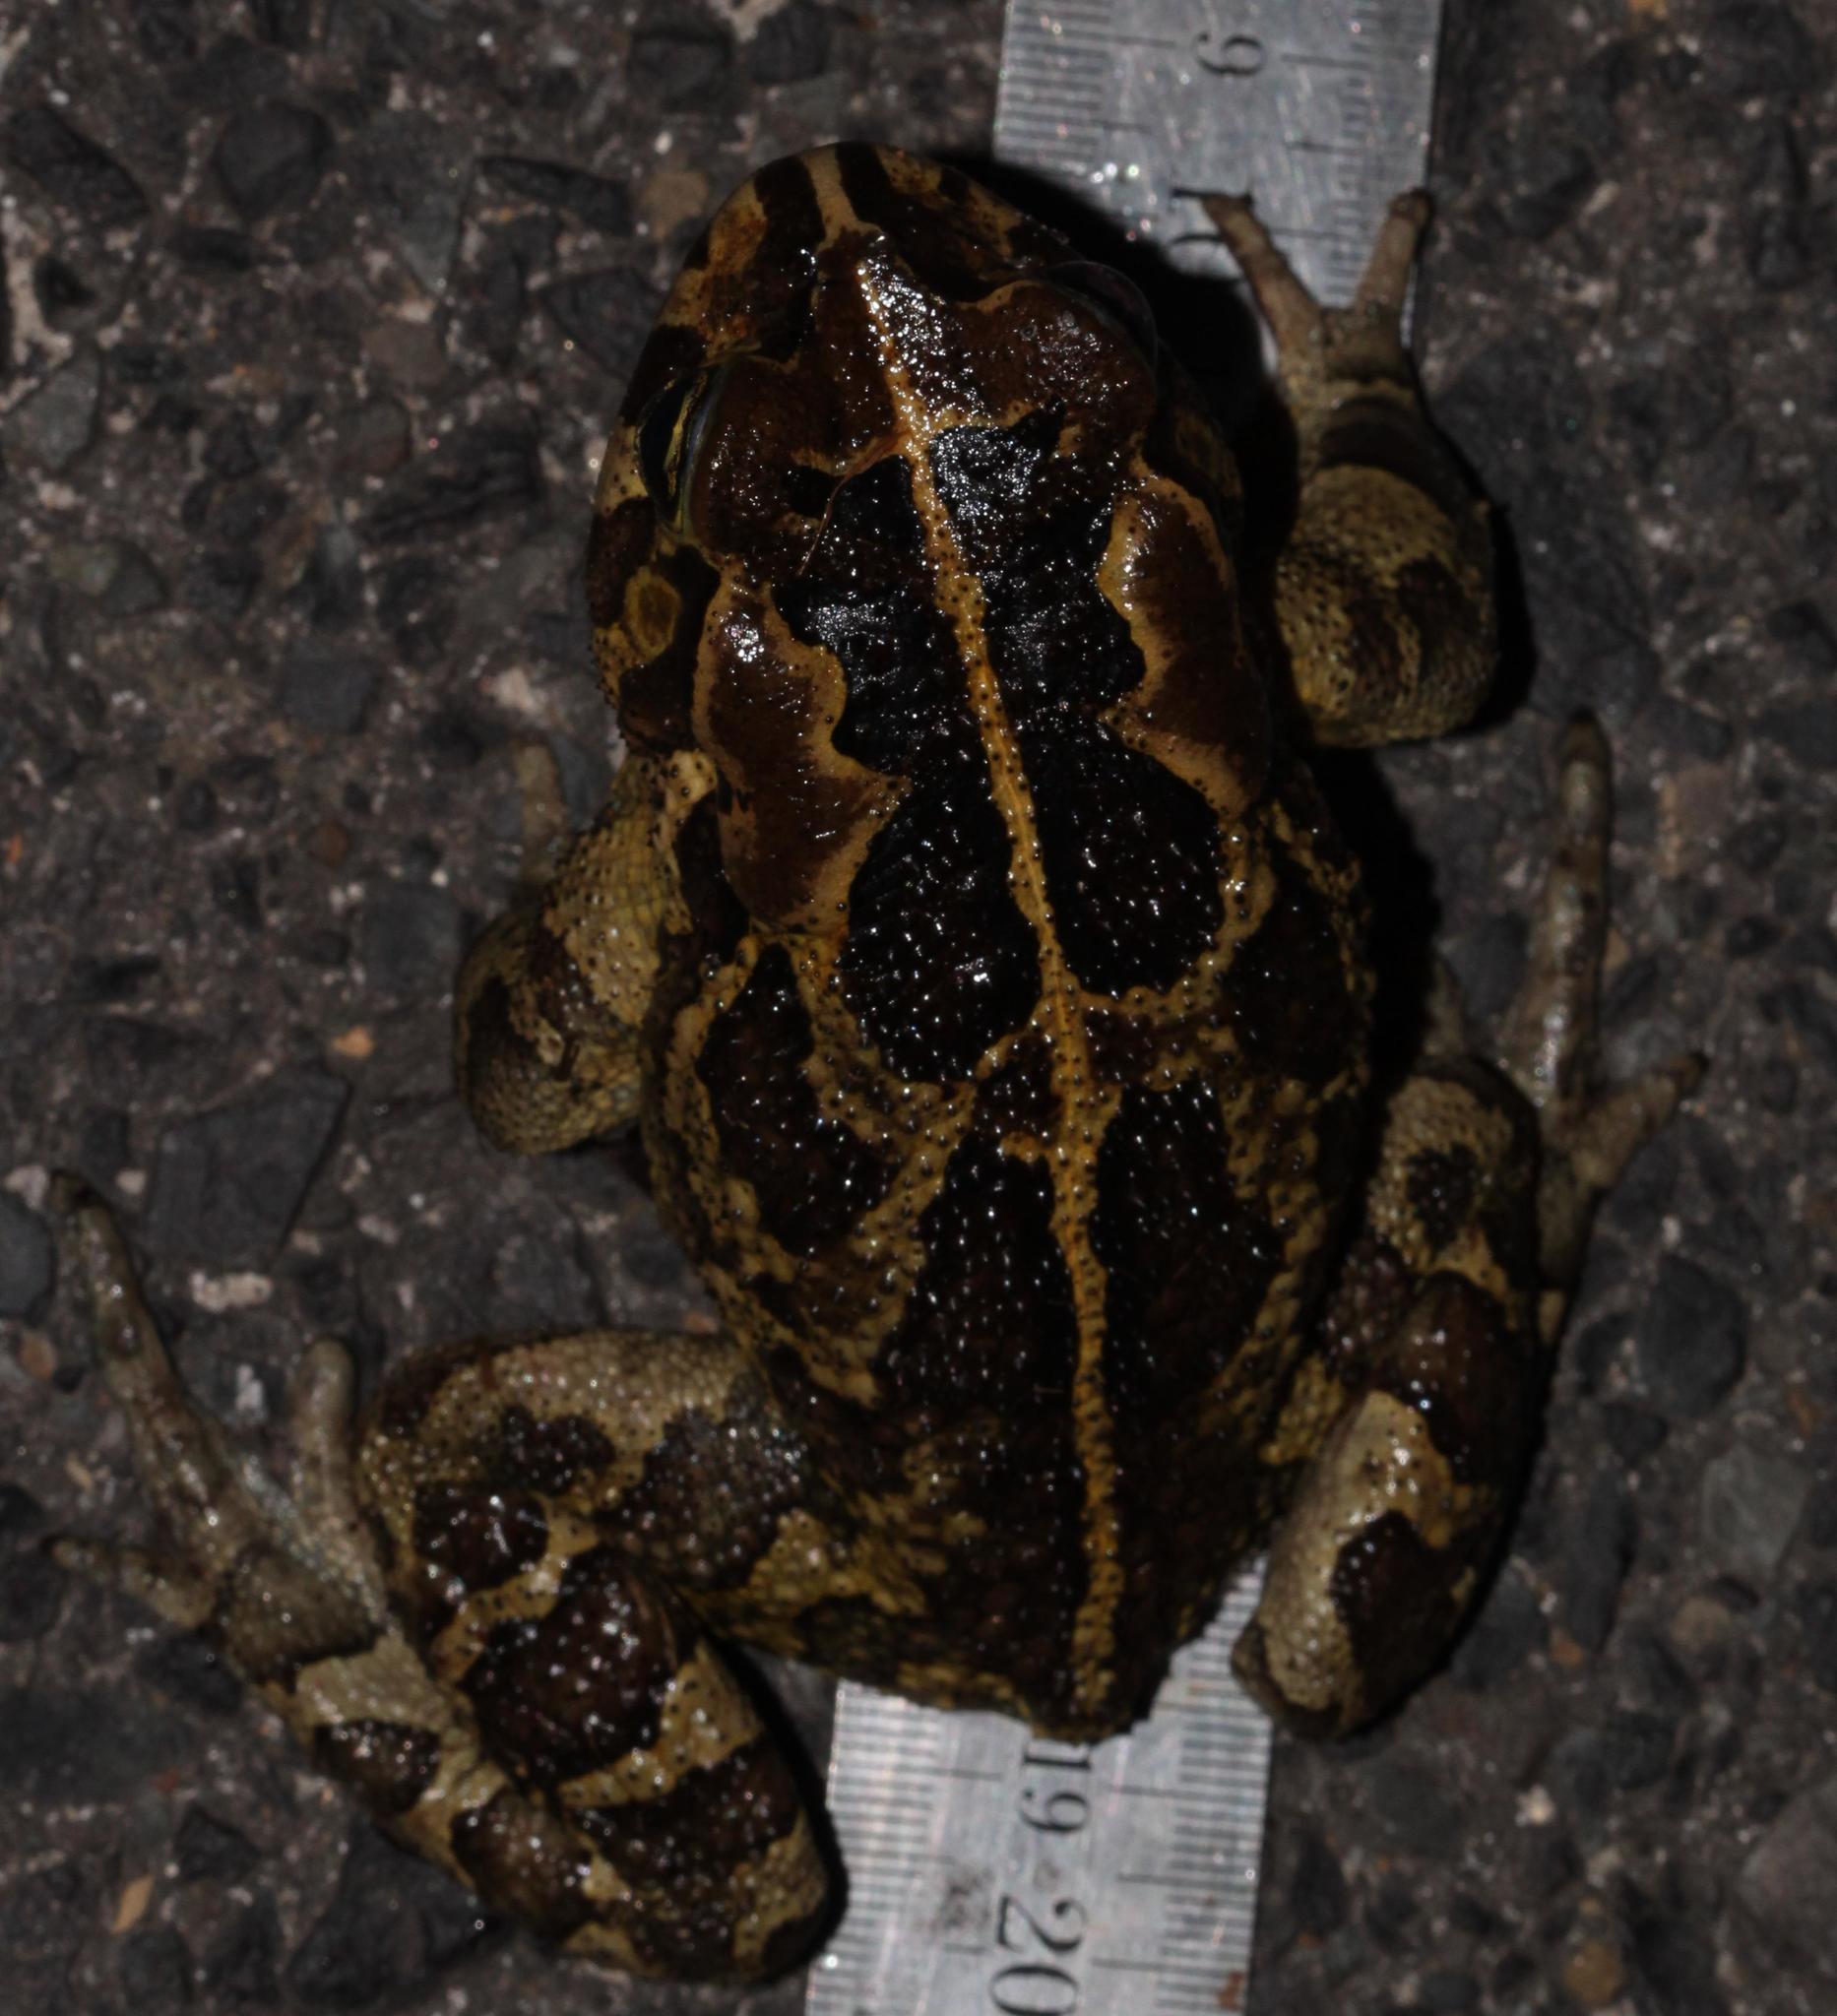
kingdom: Animalia
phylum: Chordata
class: Amphibia
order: Anura
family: Bufonidae
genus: Sclerophrys
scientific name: Sclerophrys pantherina
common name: Panther toad
